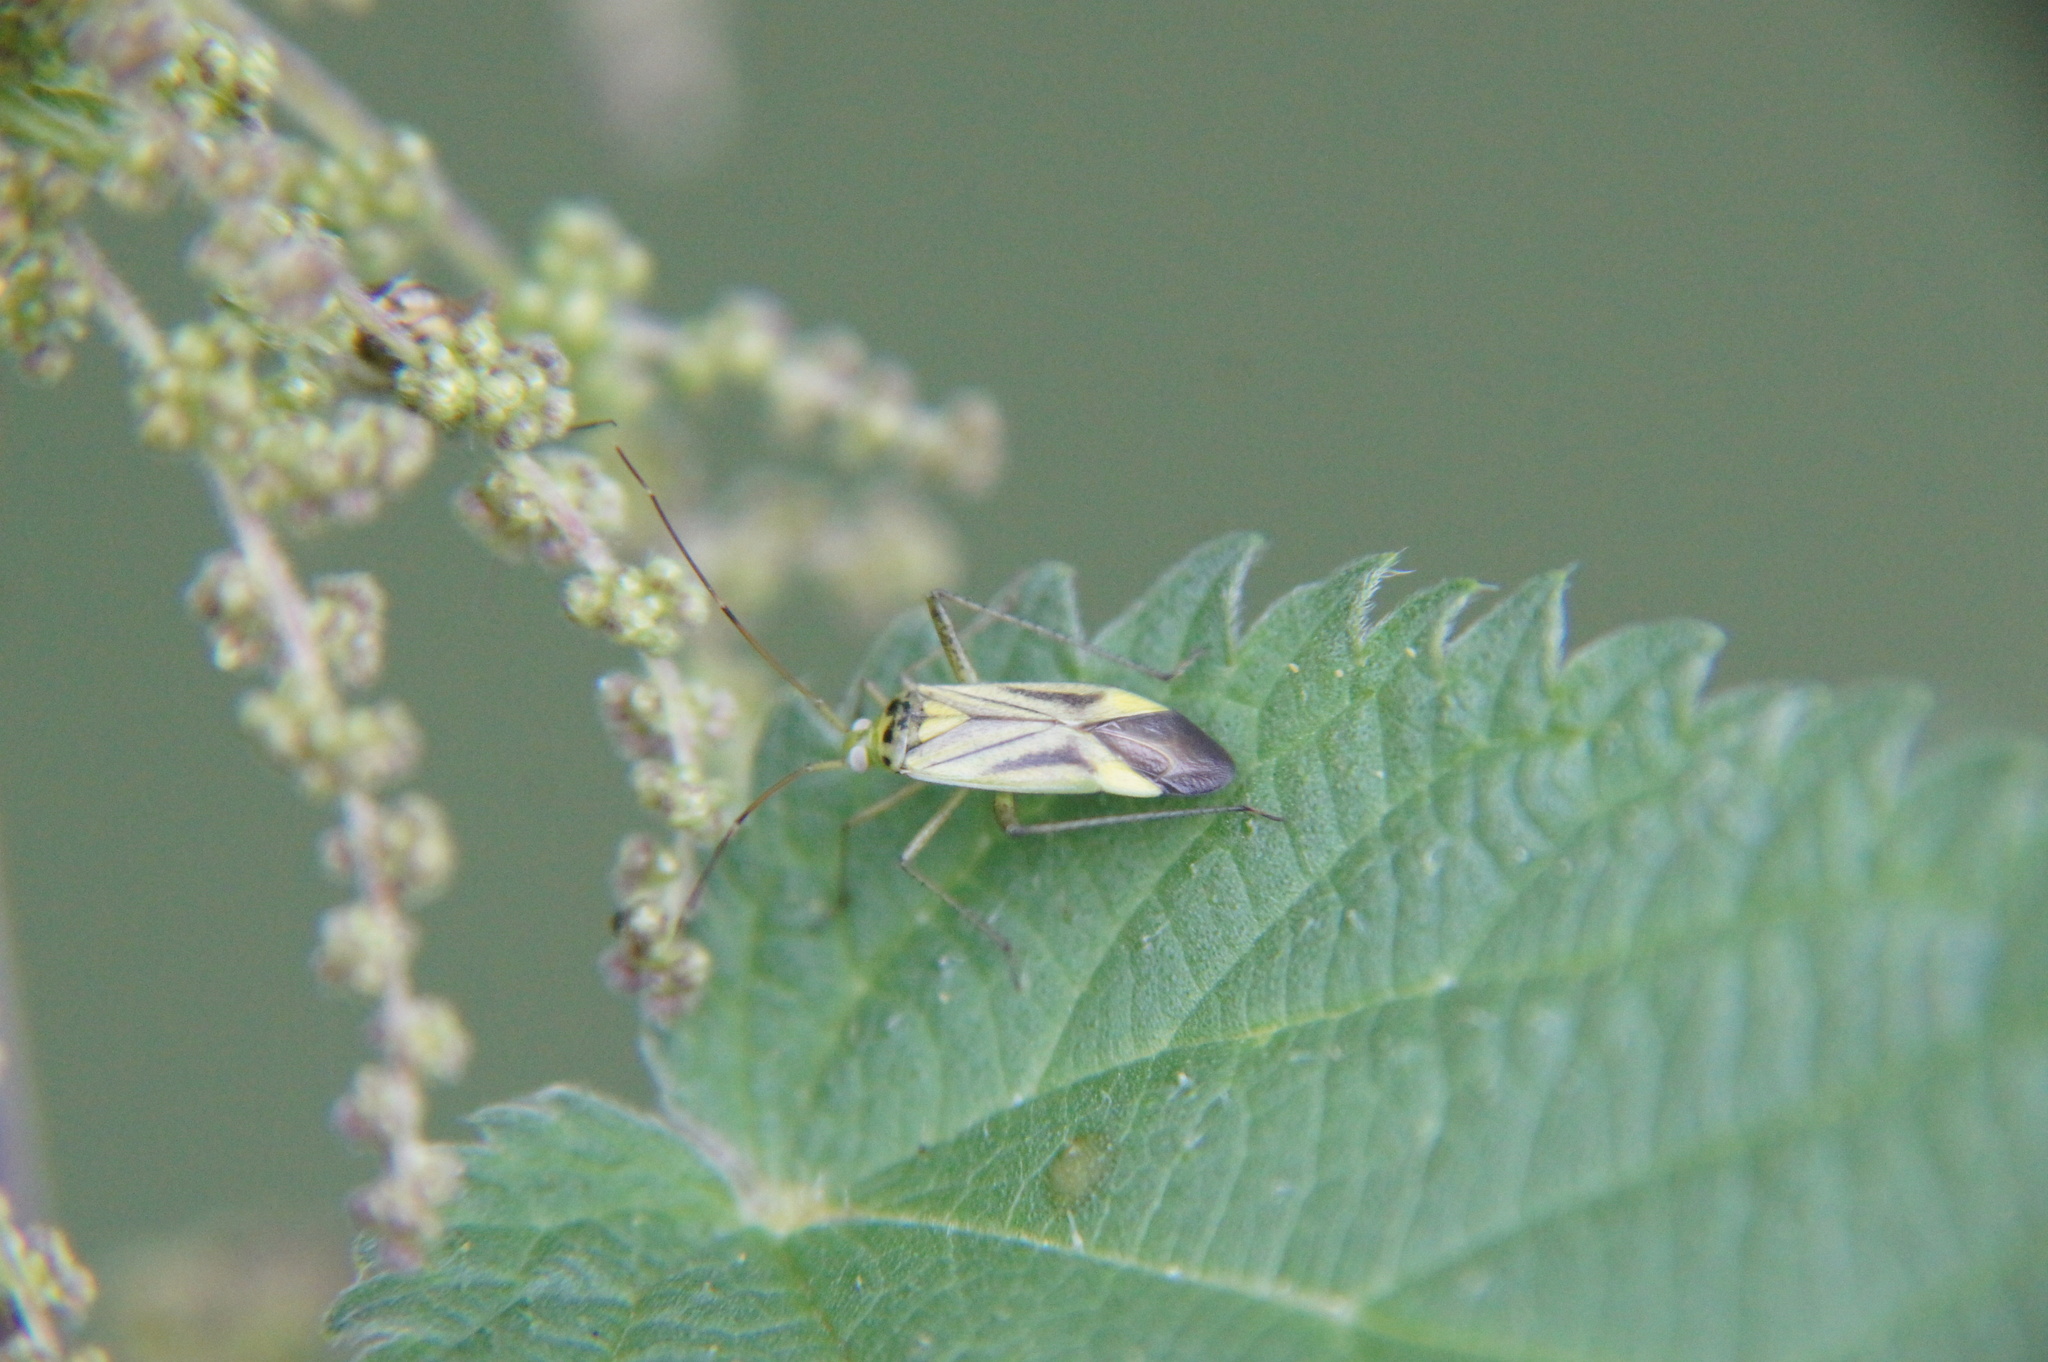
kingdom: Animalia
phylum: Arthropoda
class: Insecta
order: Hemiptera
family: Miridae
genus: Stenotus
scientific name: Stenotus binotatus
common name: Plant bug
